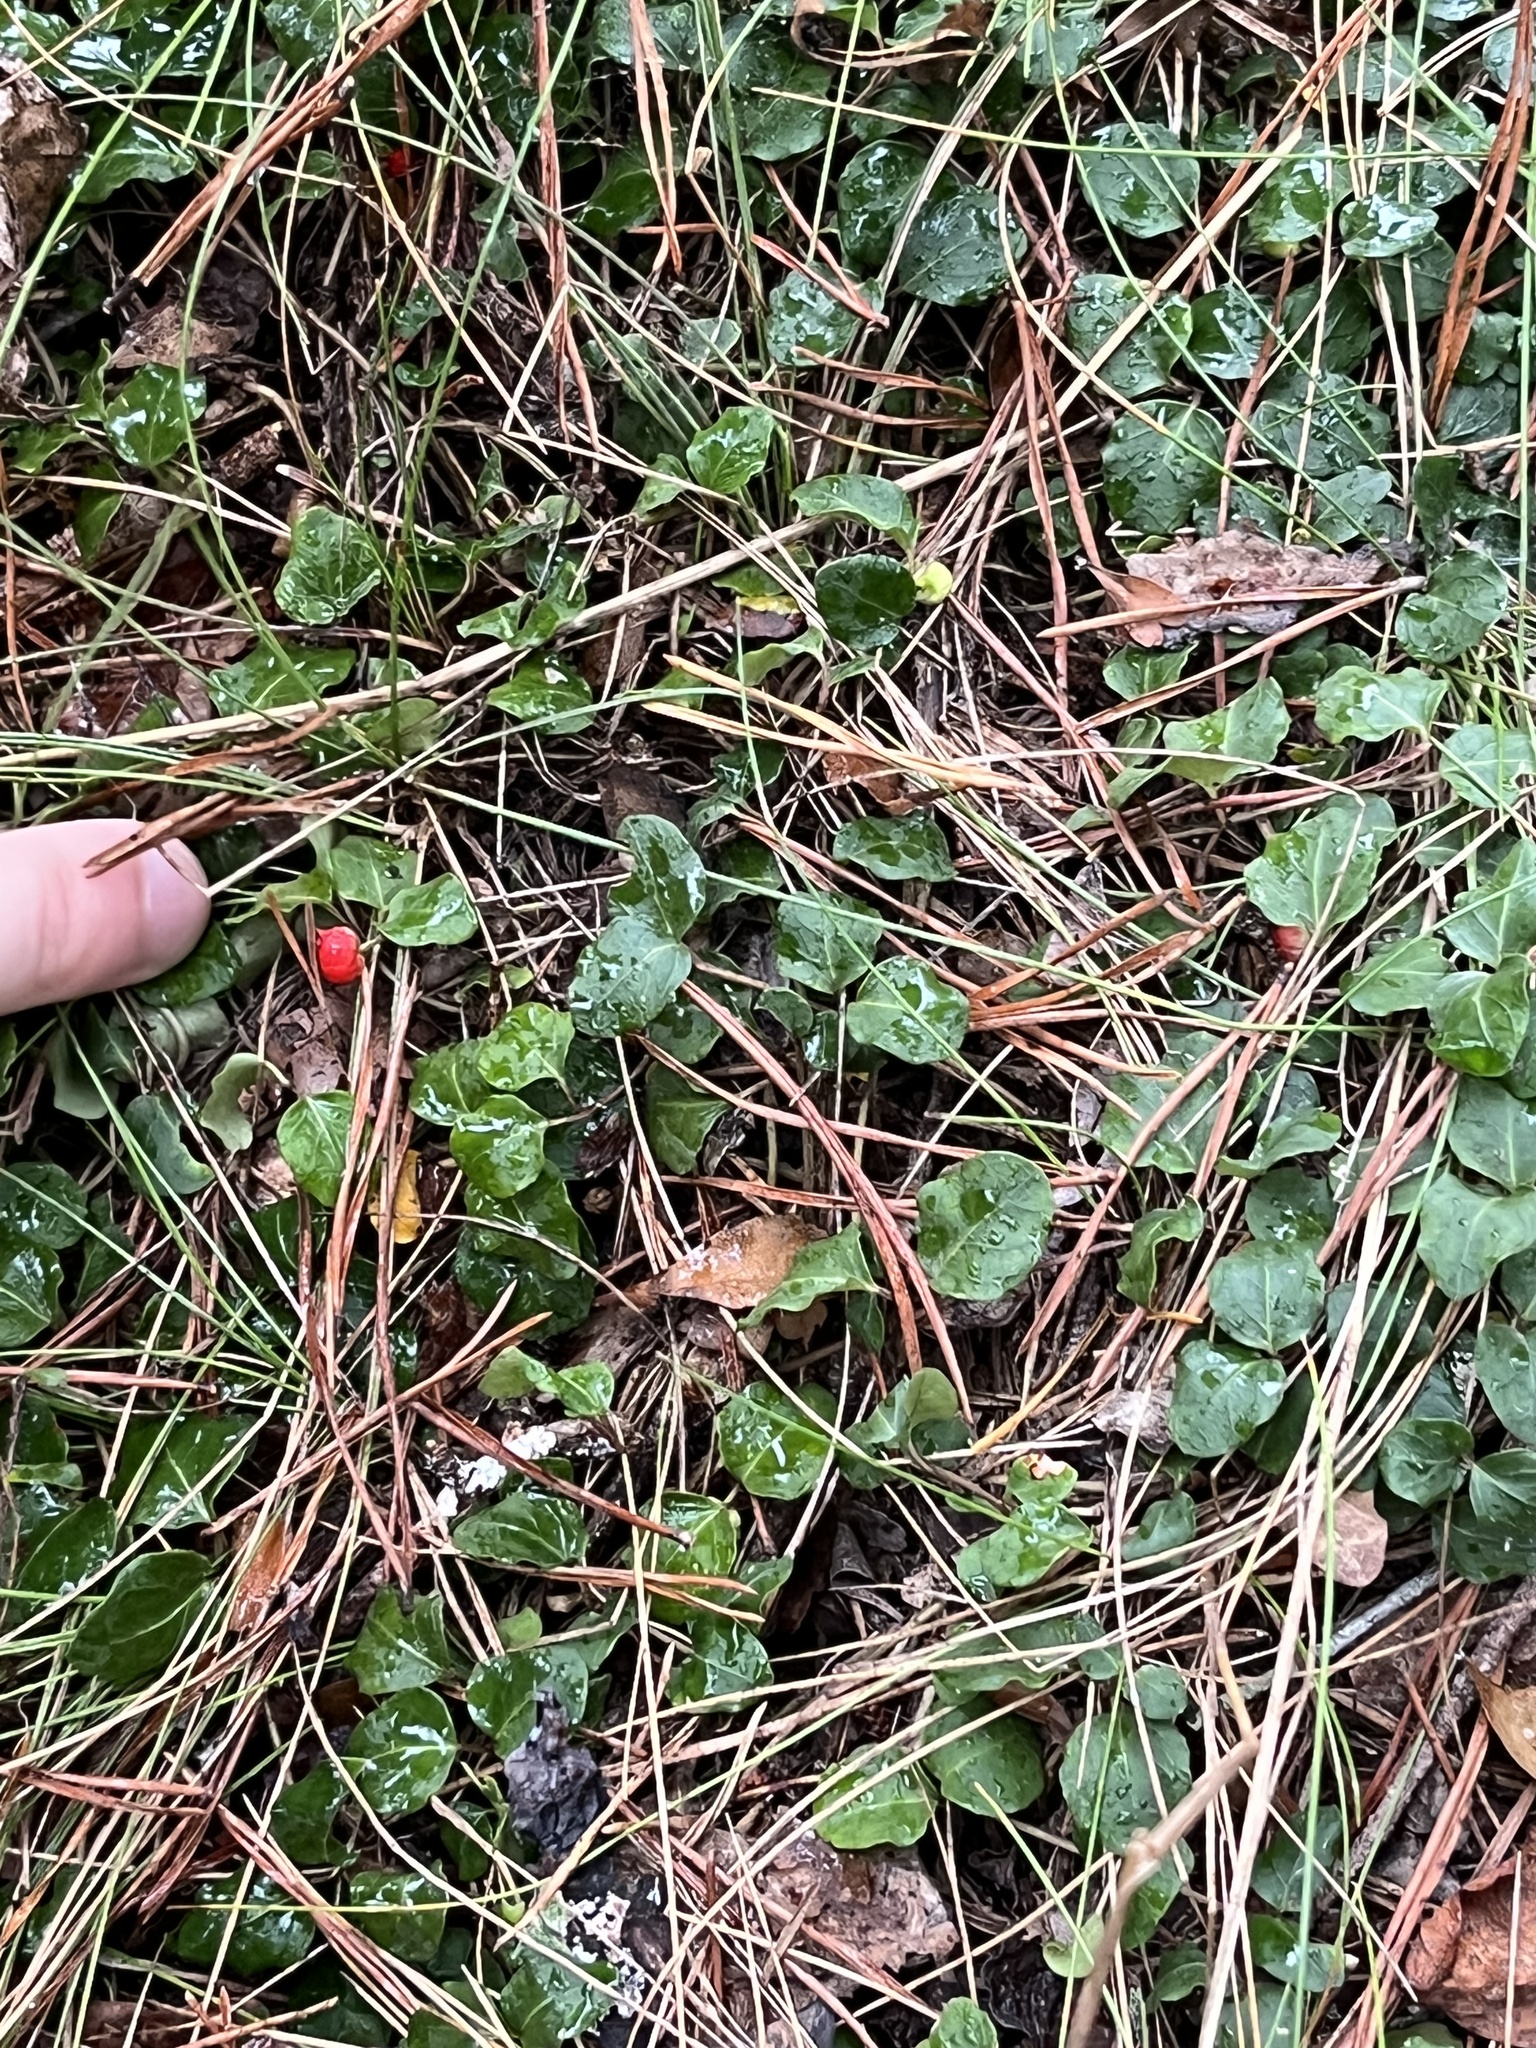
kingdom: Plantae
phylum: Tracheophyta
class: Magnoliopsida
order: Gentianales
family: Rubiaceae
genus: Mitchella
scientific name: Mitchella repens
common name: Partridge-berry
